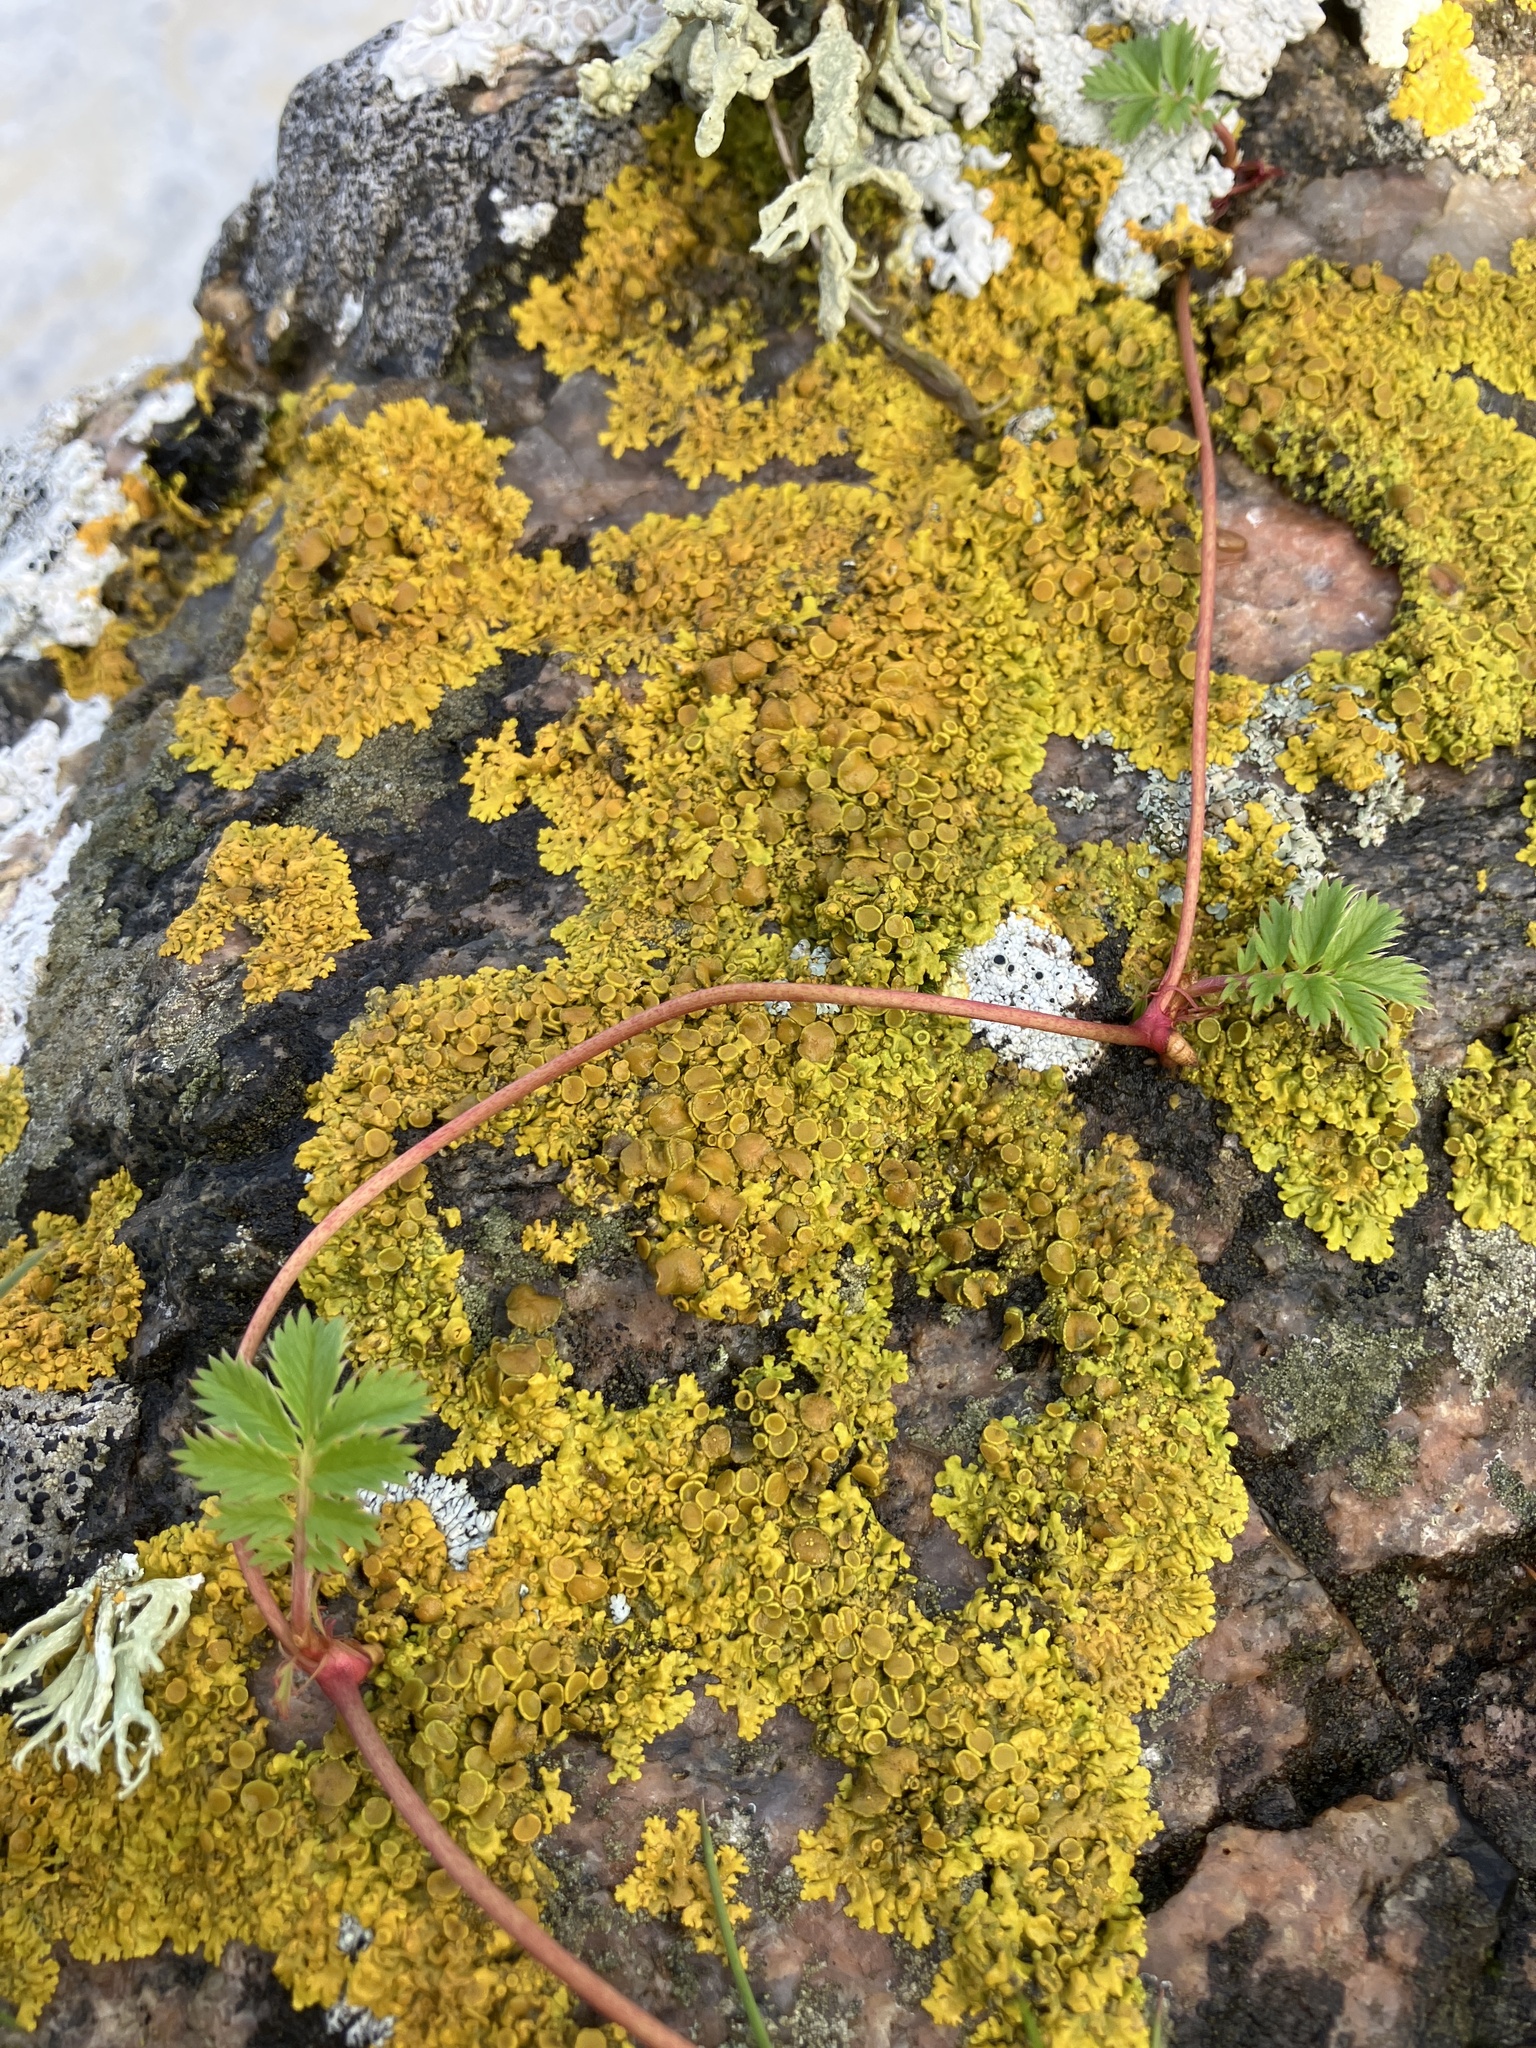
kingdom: Fungi
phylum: Ascomycota
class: Lecanoromycetes
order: Teloschistales
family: Teloschistaceae
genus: Xanthoria
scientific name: Xanthoria parietina
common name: Common orange lichen
